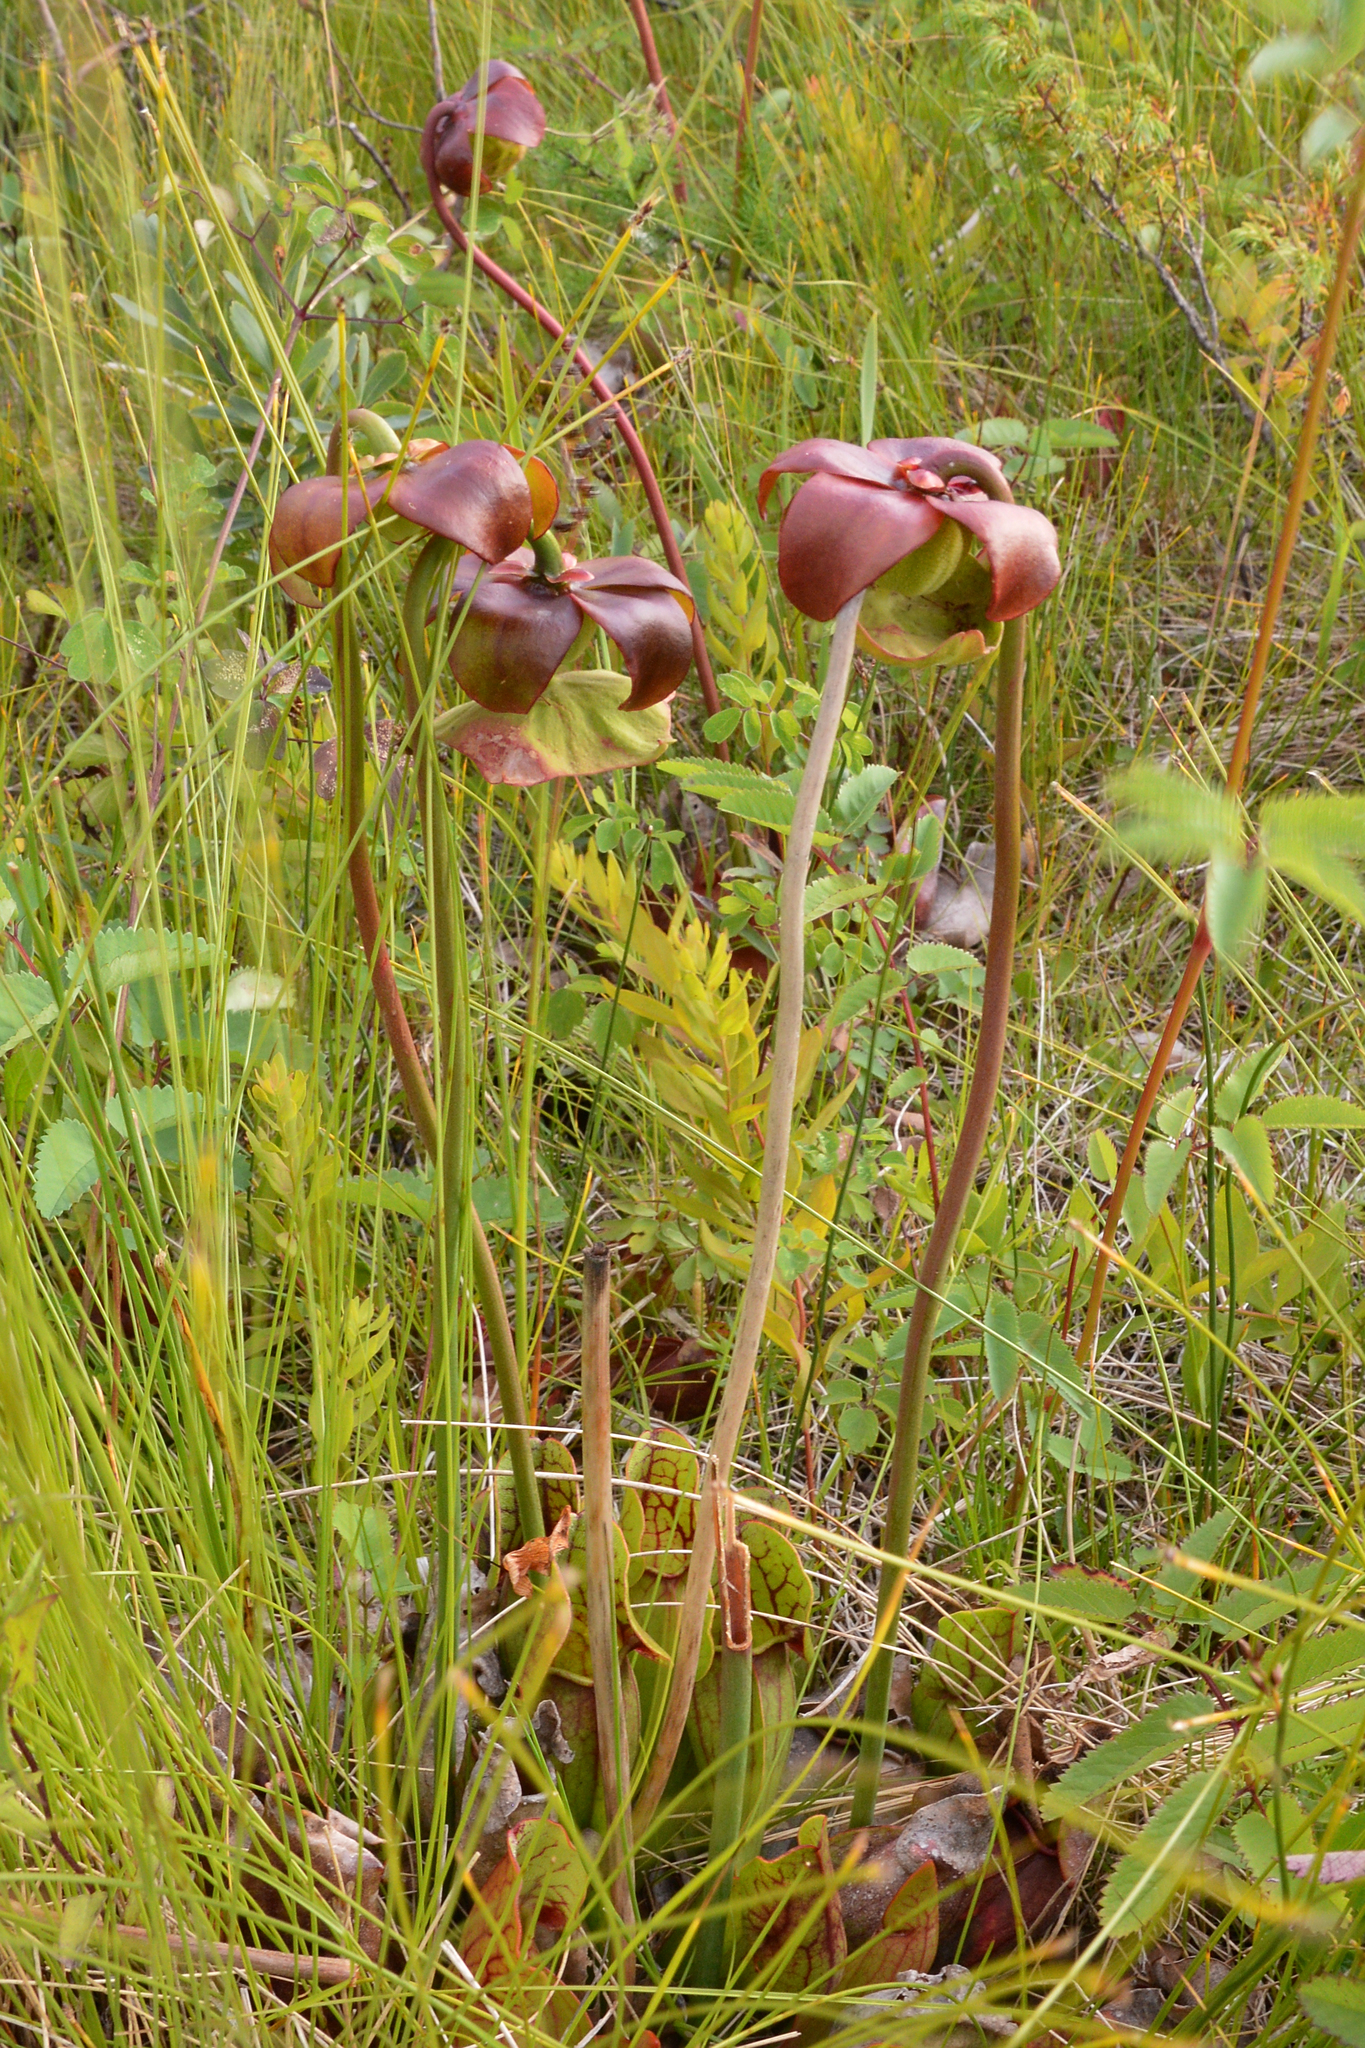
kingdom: Plantae
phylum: Tracheophyta
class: Magnoliopsida
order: Ericales
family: Sarraceniaceae
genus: Sarracenia
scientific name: Sarracenia purpurea
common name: Pitcherplant
